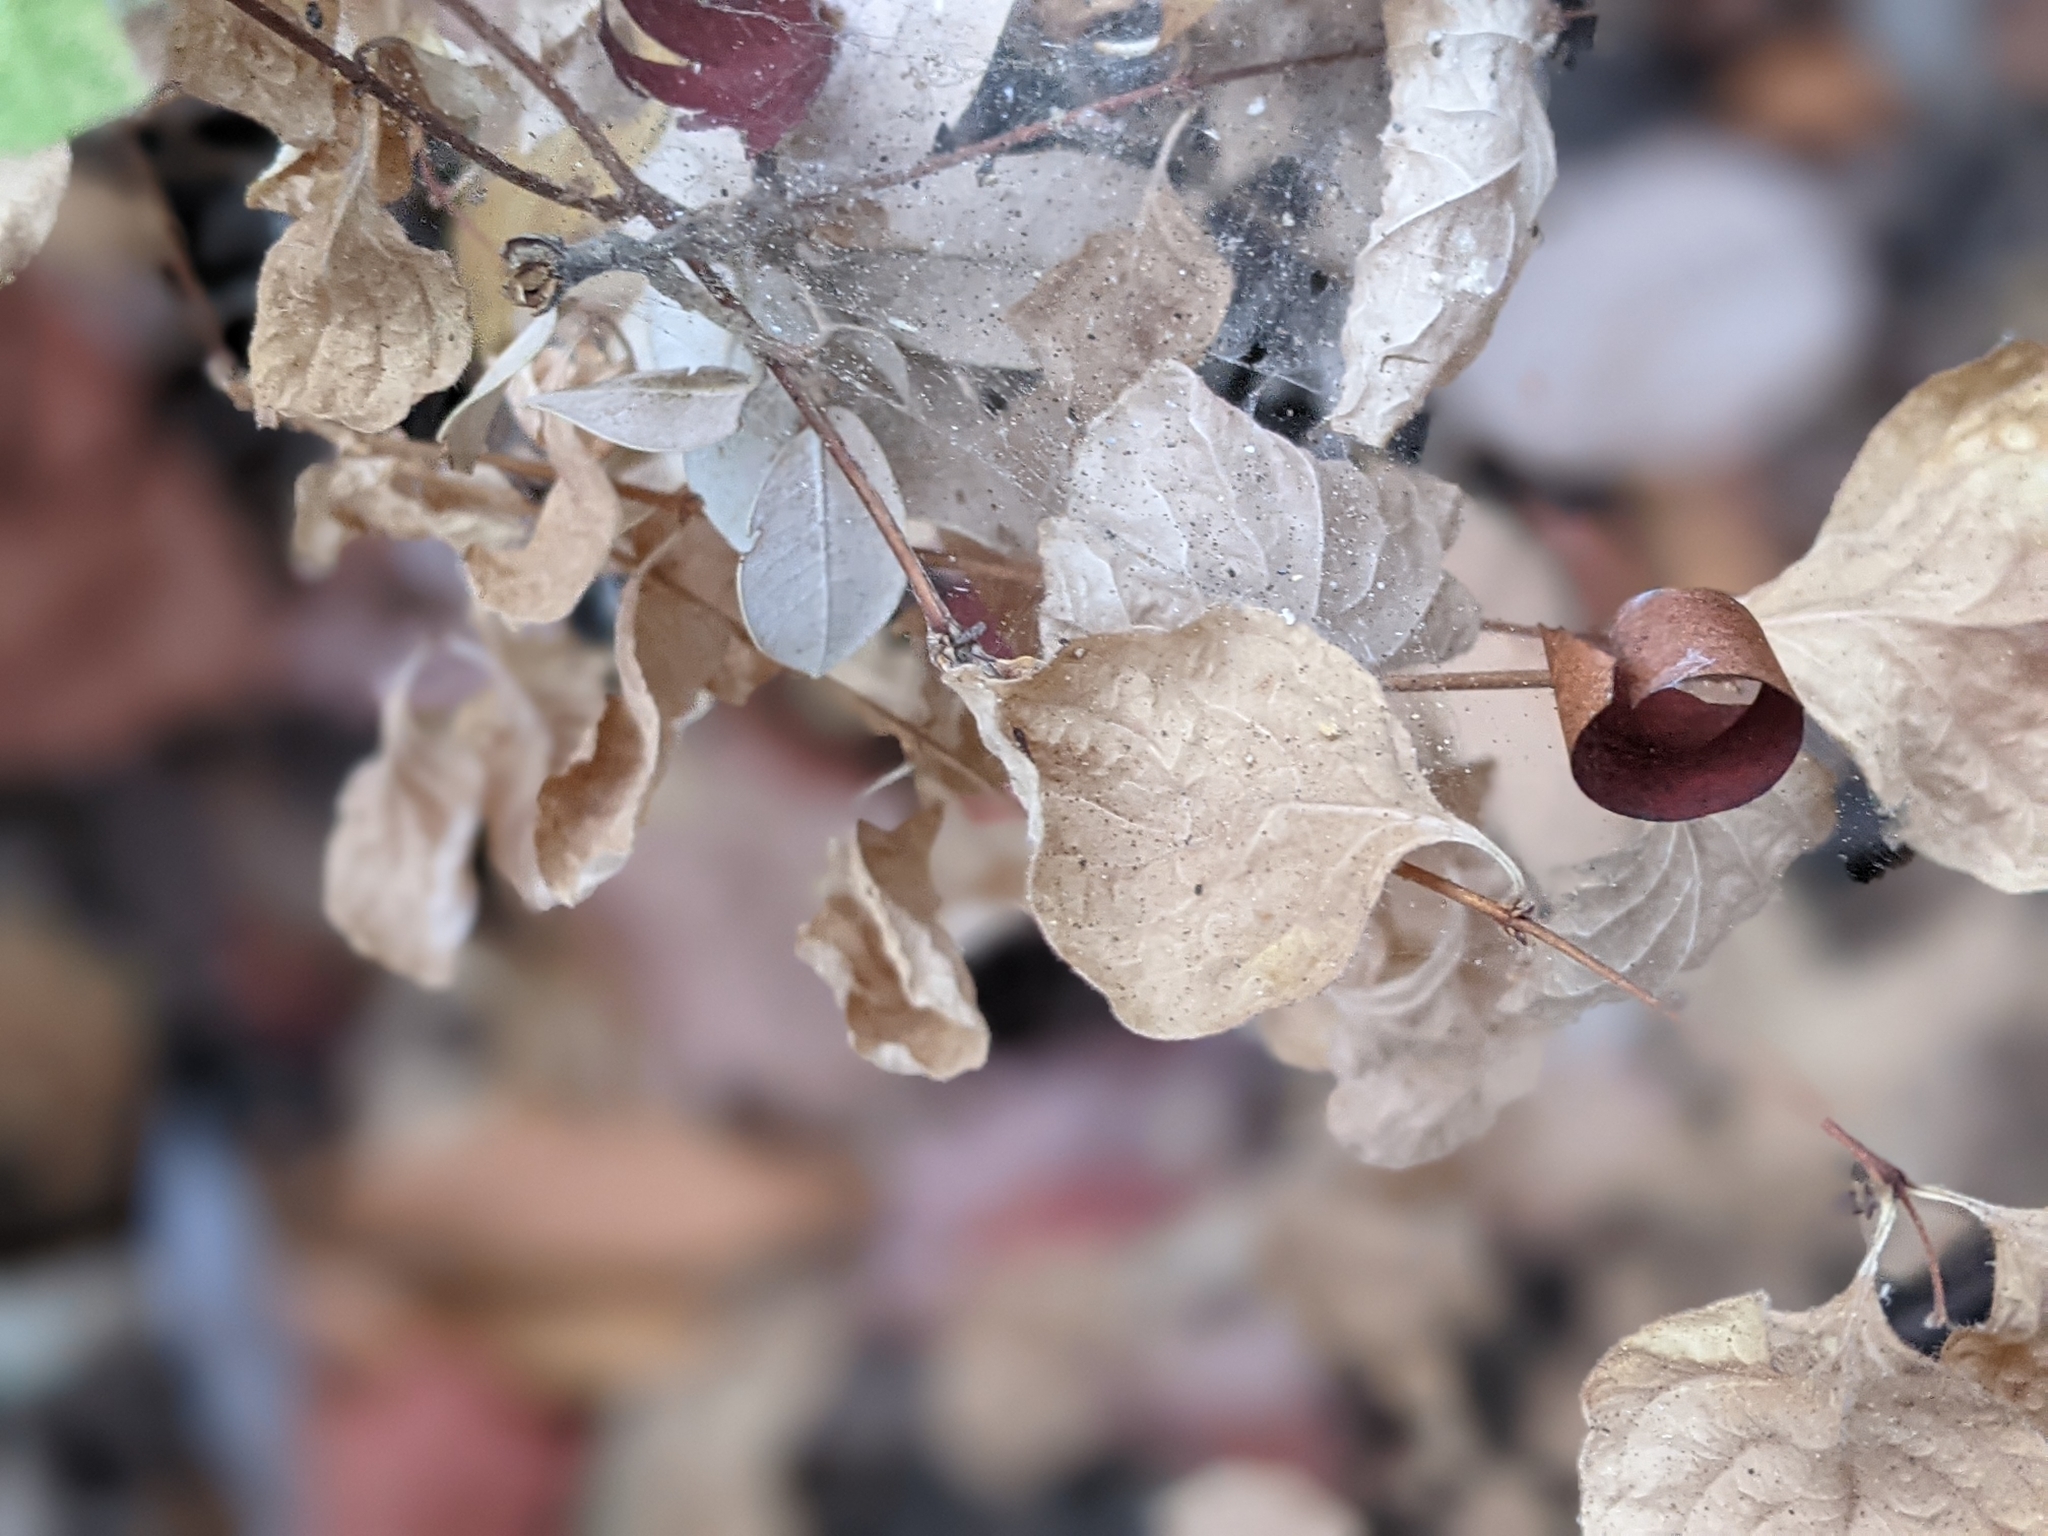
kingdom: Plantae
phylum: Tracheophyta
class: Magnoliopsida
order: Dipsacales
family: Caprifoliaceae
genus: Symphoricarpos
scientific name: Symphoricarpos mollis
